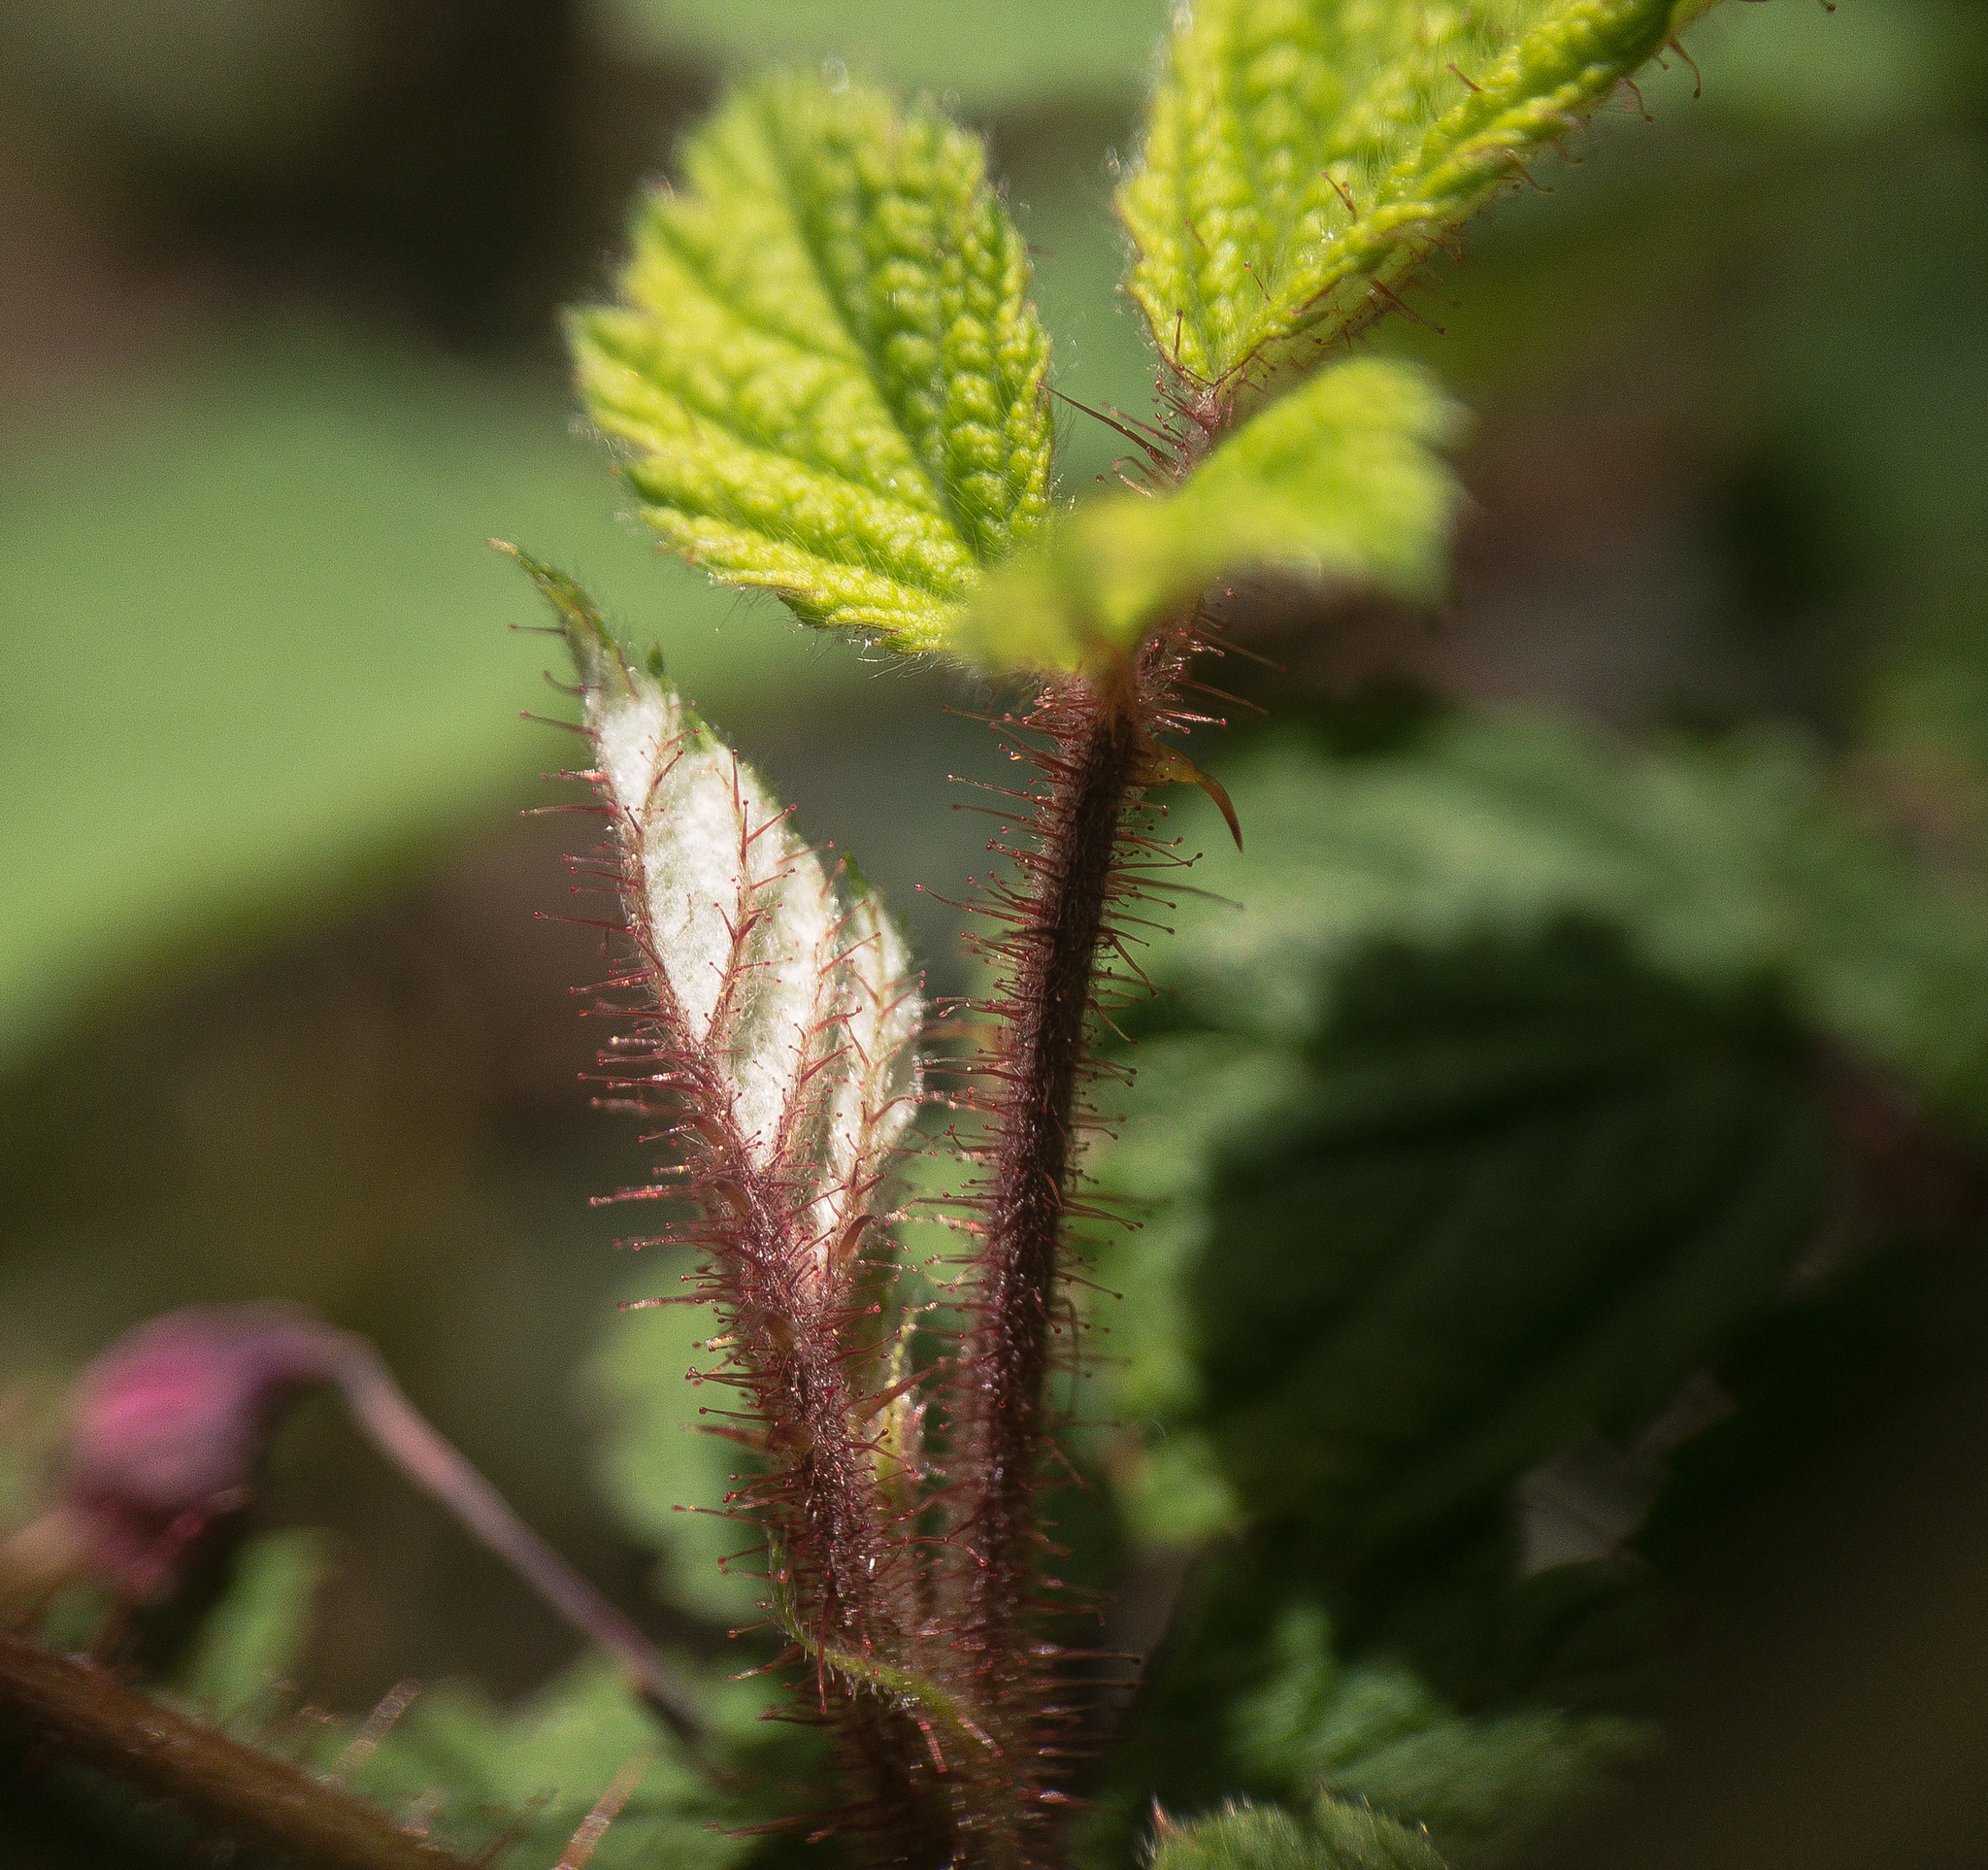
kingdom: Plantae
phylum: Tracheophyta
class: Magnoliopsida
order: Rosales
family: Rosaceae
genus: Rubus
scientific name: Rubus phoenicolasius
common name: Japanese wineberry
